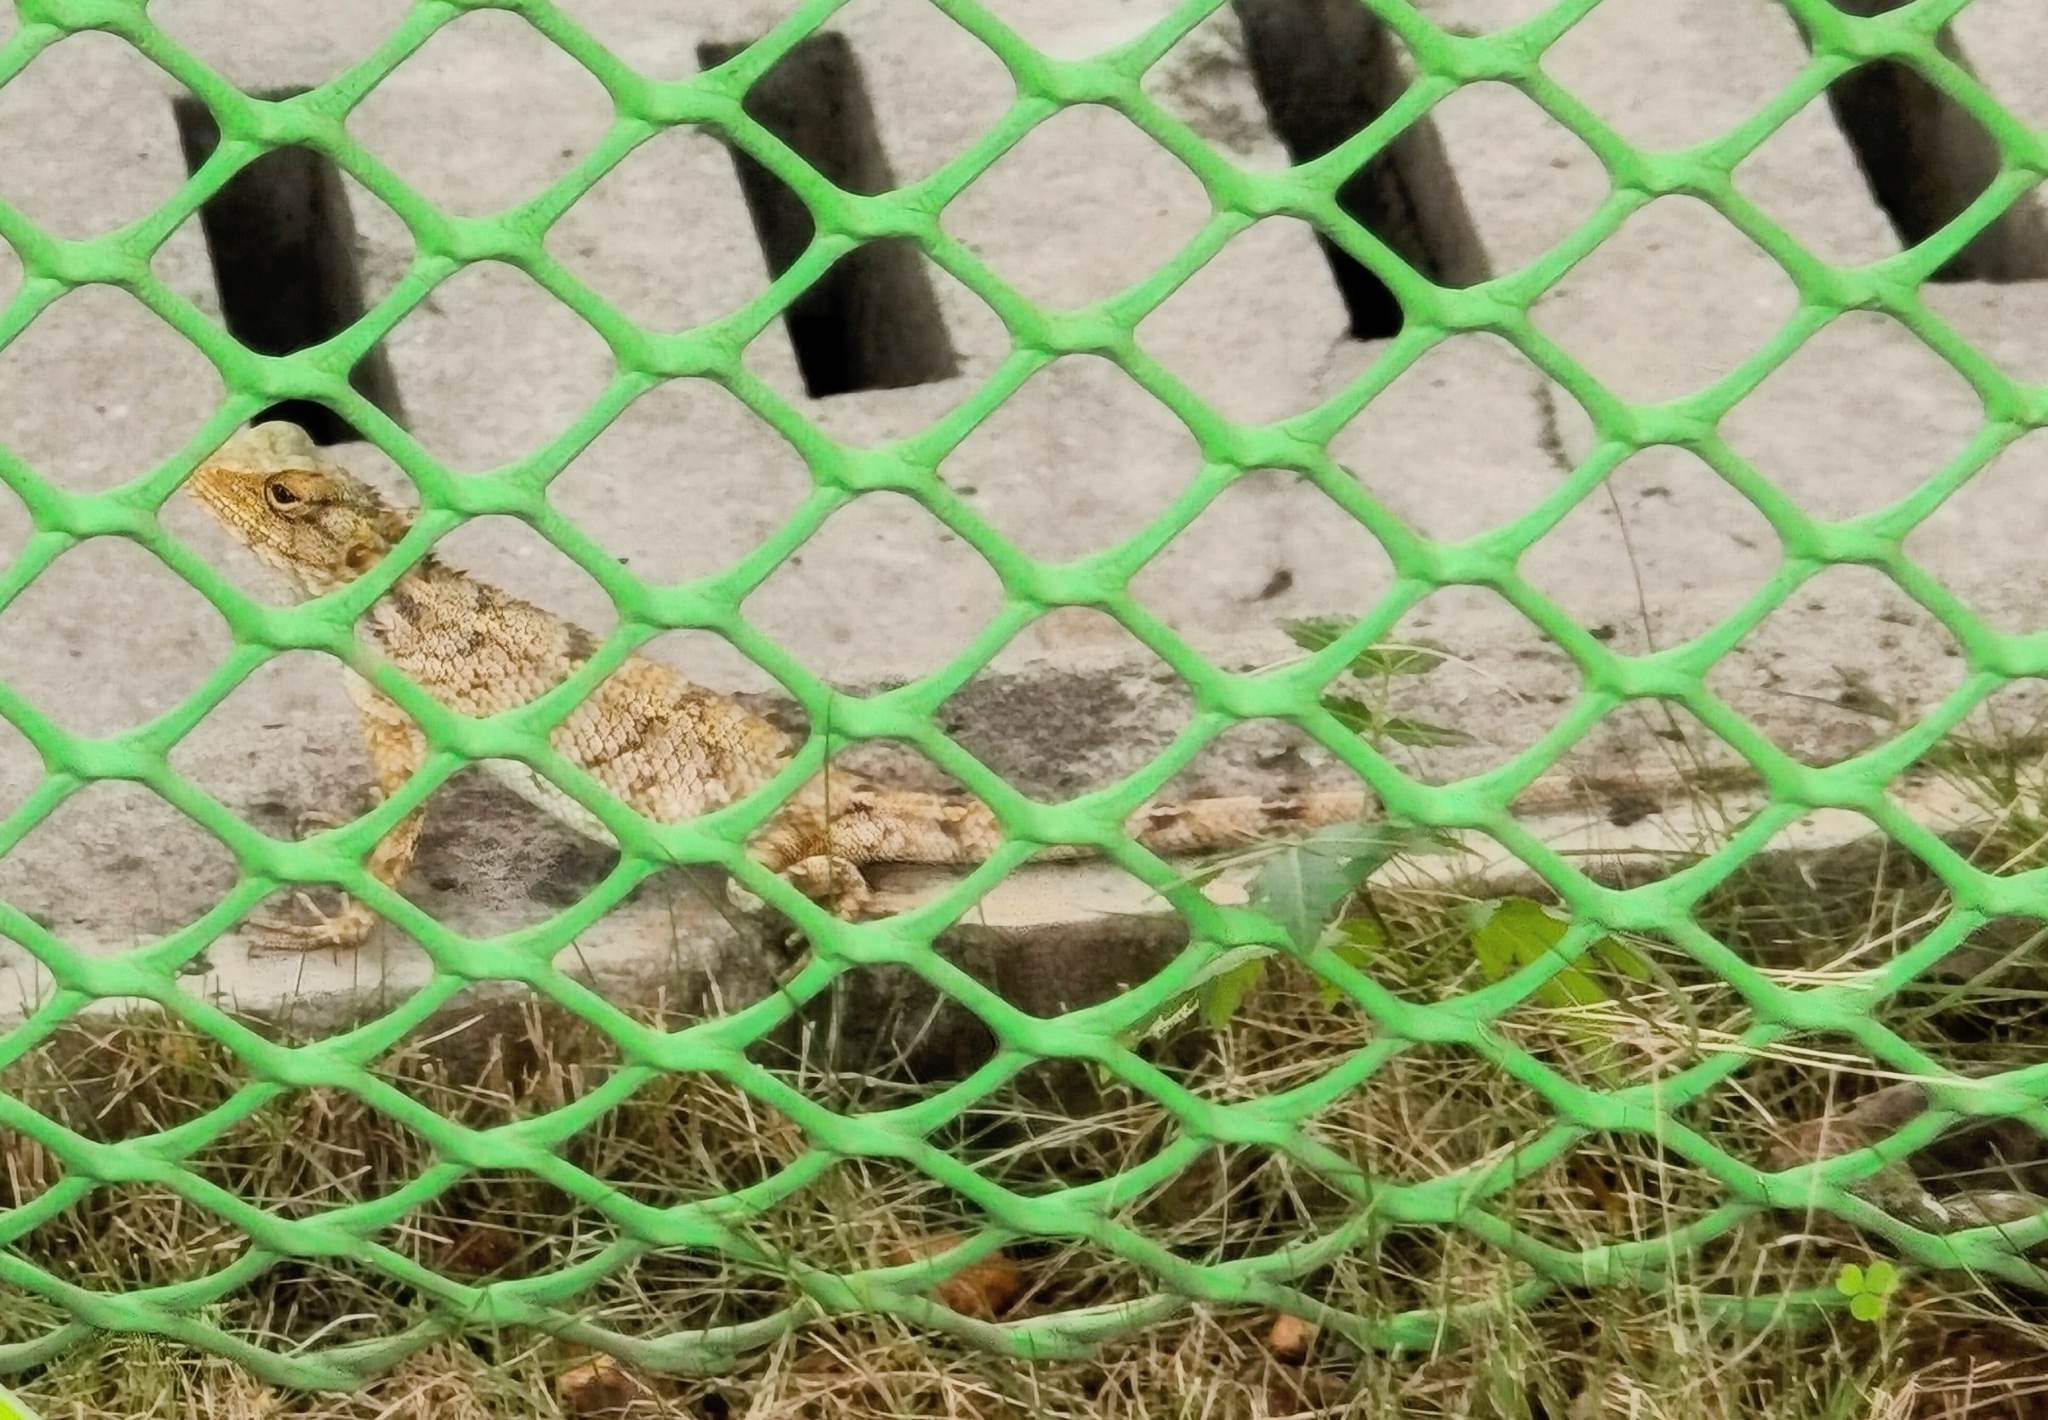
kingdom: Animalia
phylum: Chordata
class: Squamata
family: Agamidae
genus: Calotes
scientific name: Calotes versicolor
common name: Oriental garden lizard
